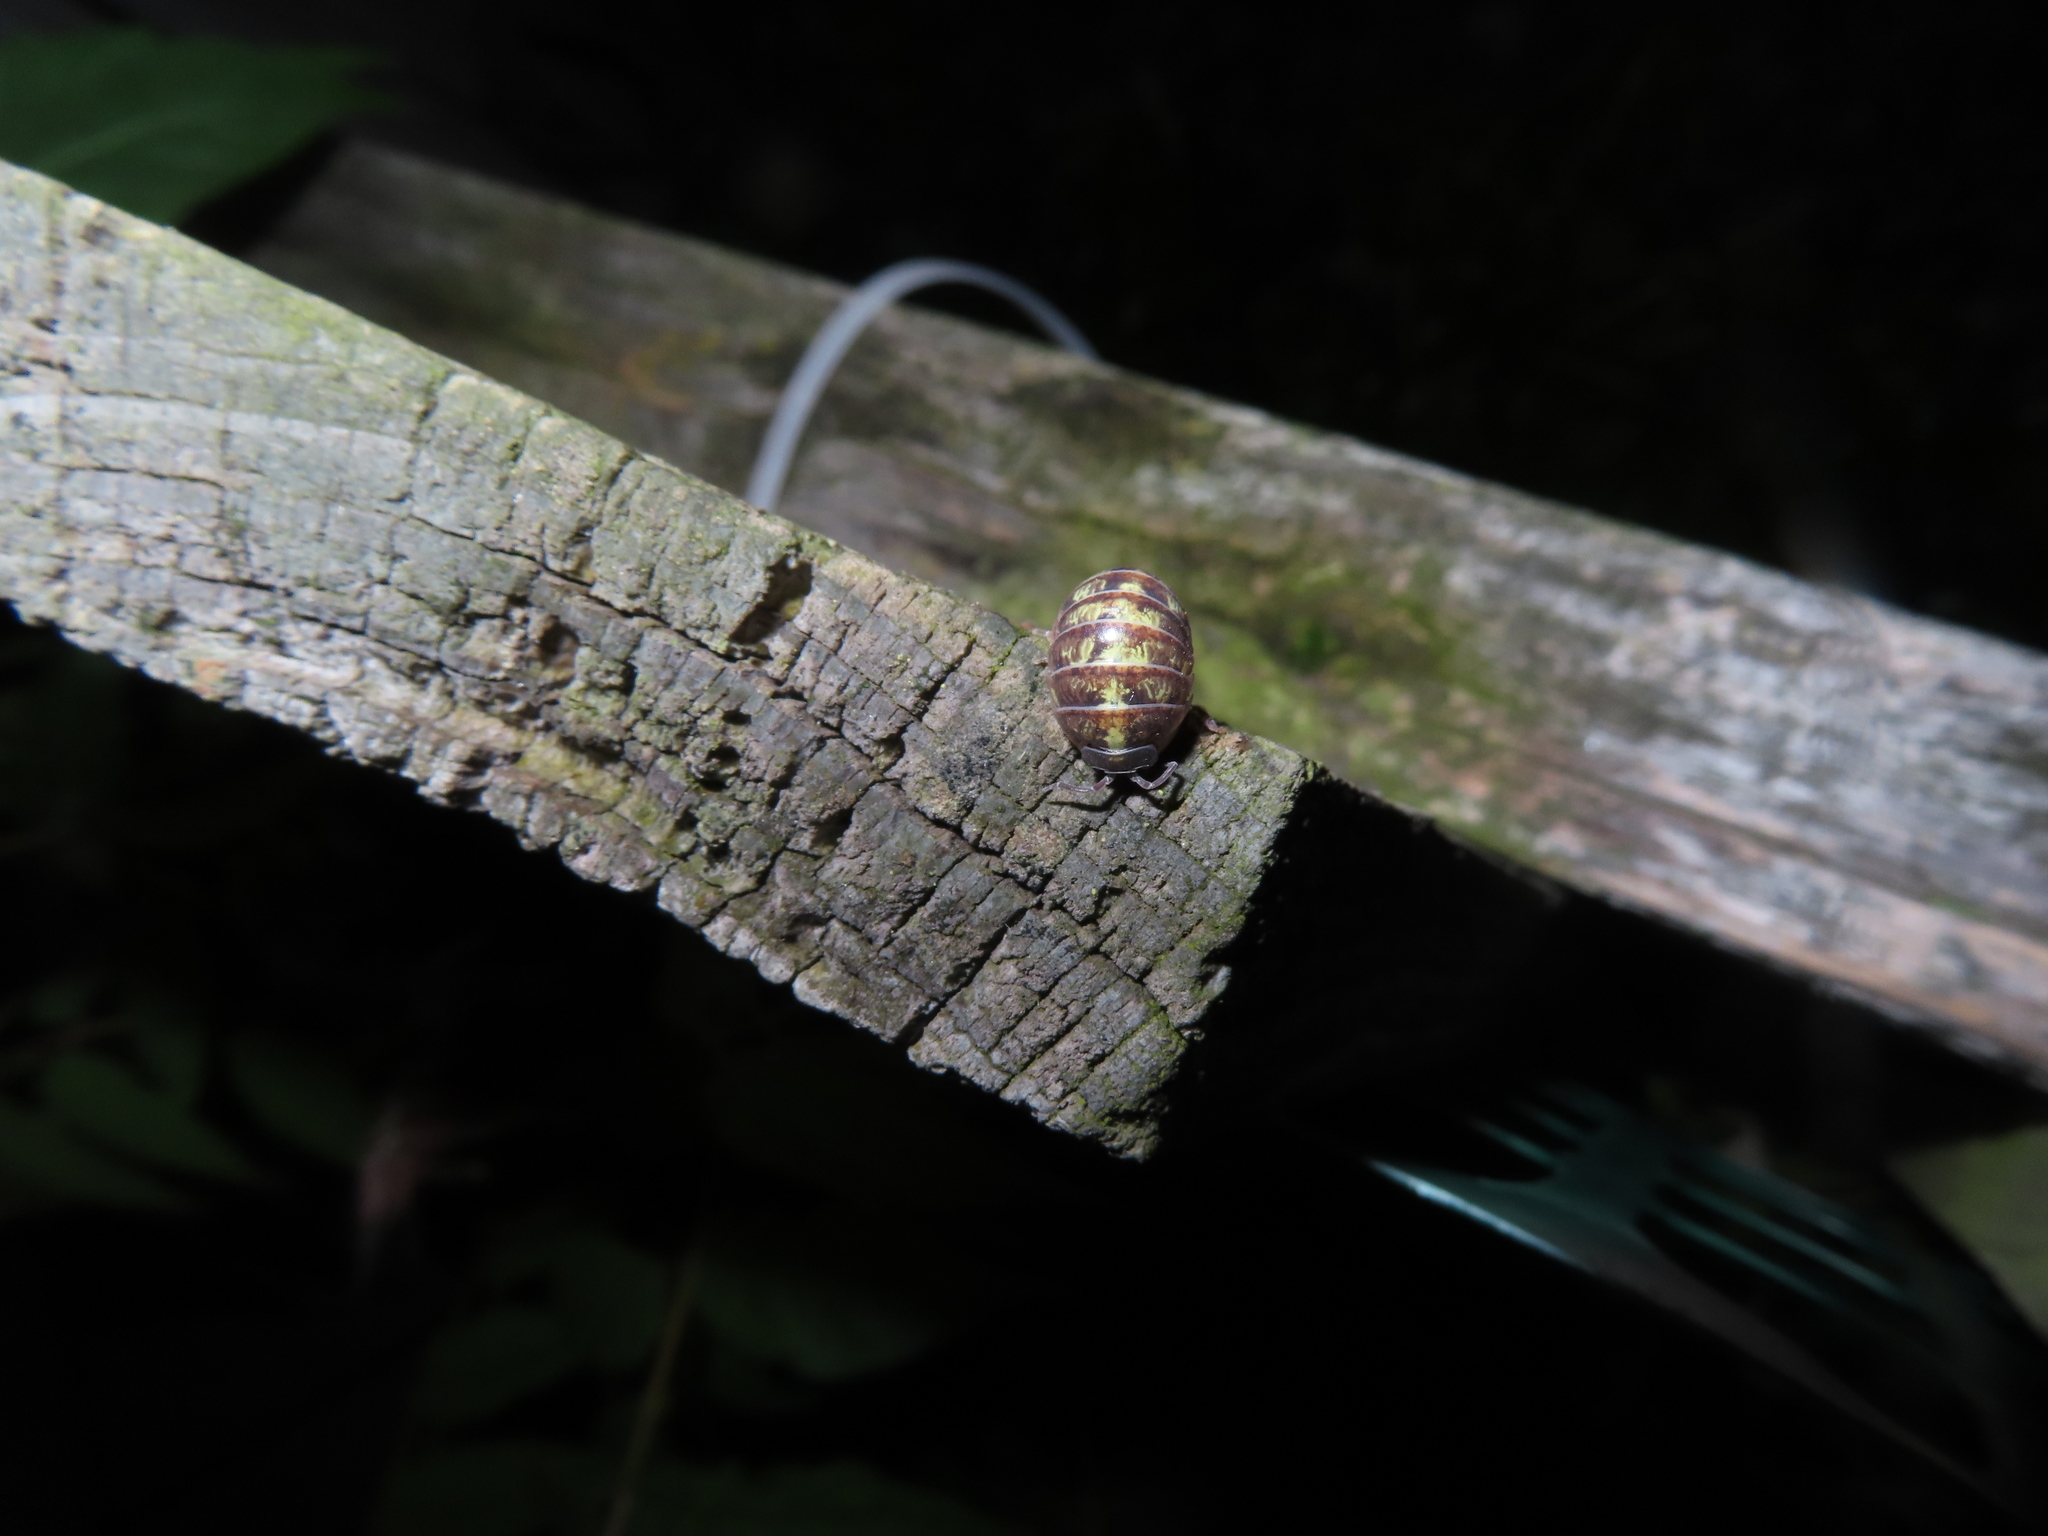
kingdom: Animalia
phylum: Arthropoda
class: Malacostraca
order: Isopoda
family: Armadillidiidae
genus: Armadillidium
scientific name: Armadillidium vulgare
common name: Common pill woodlouse
